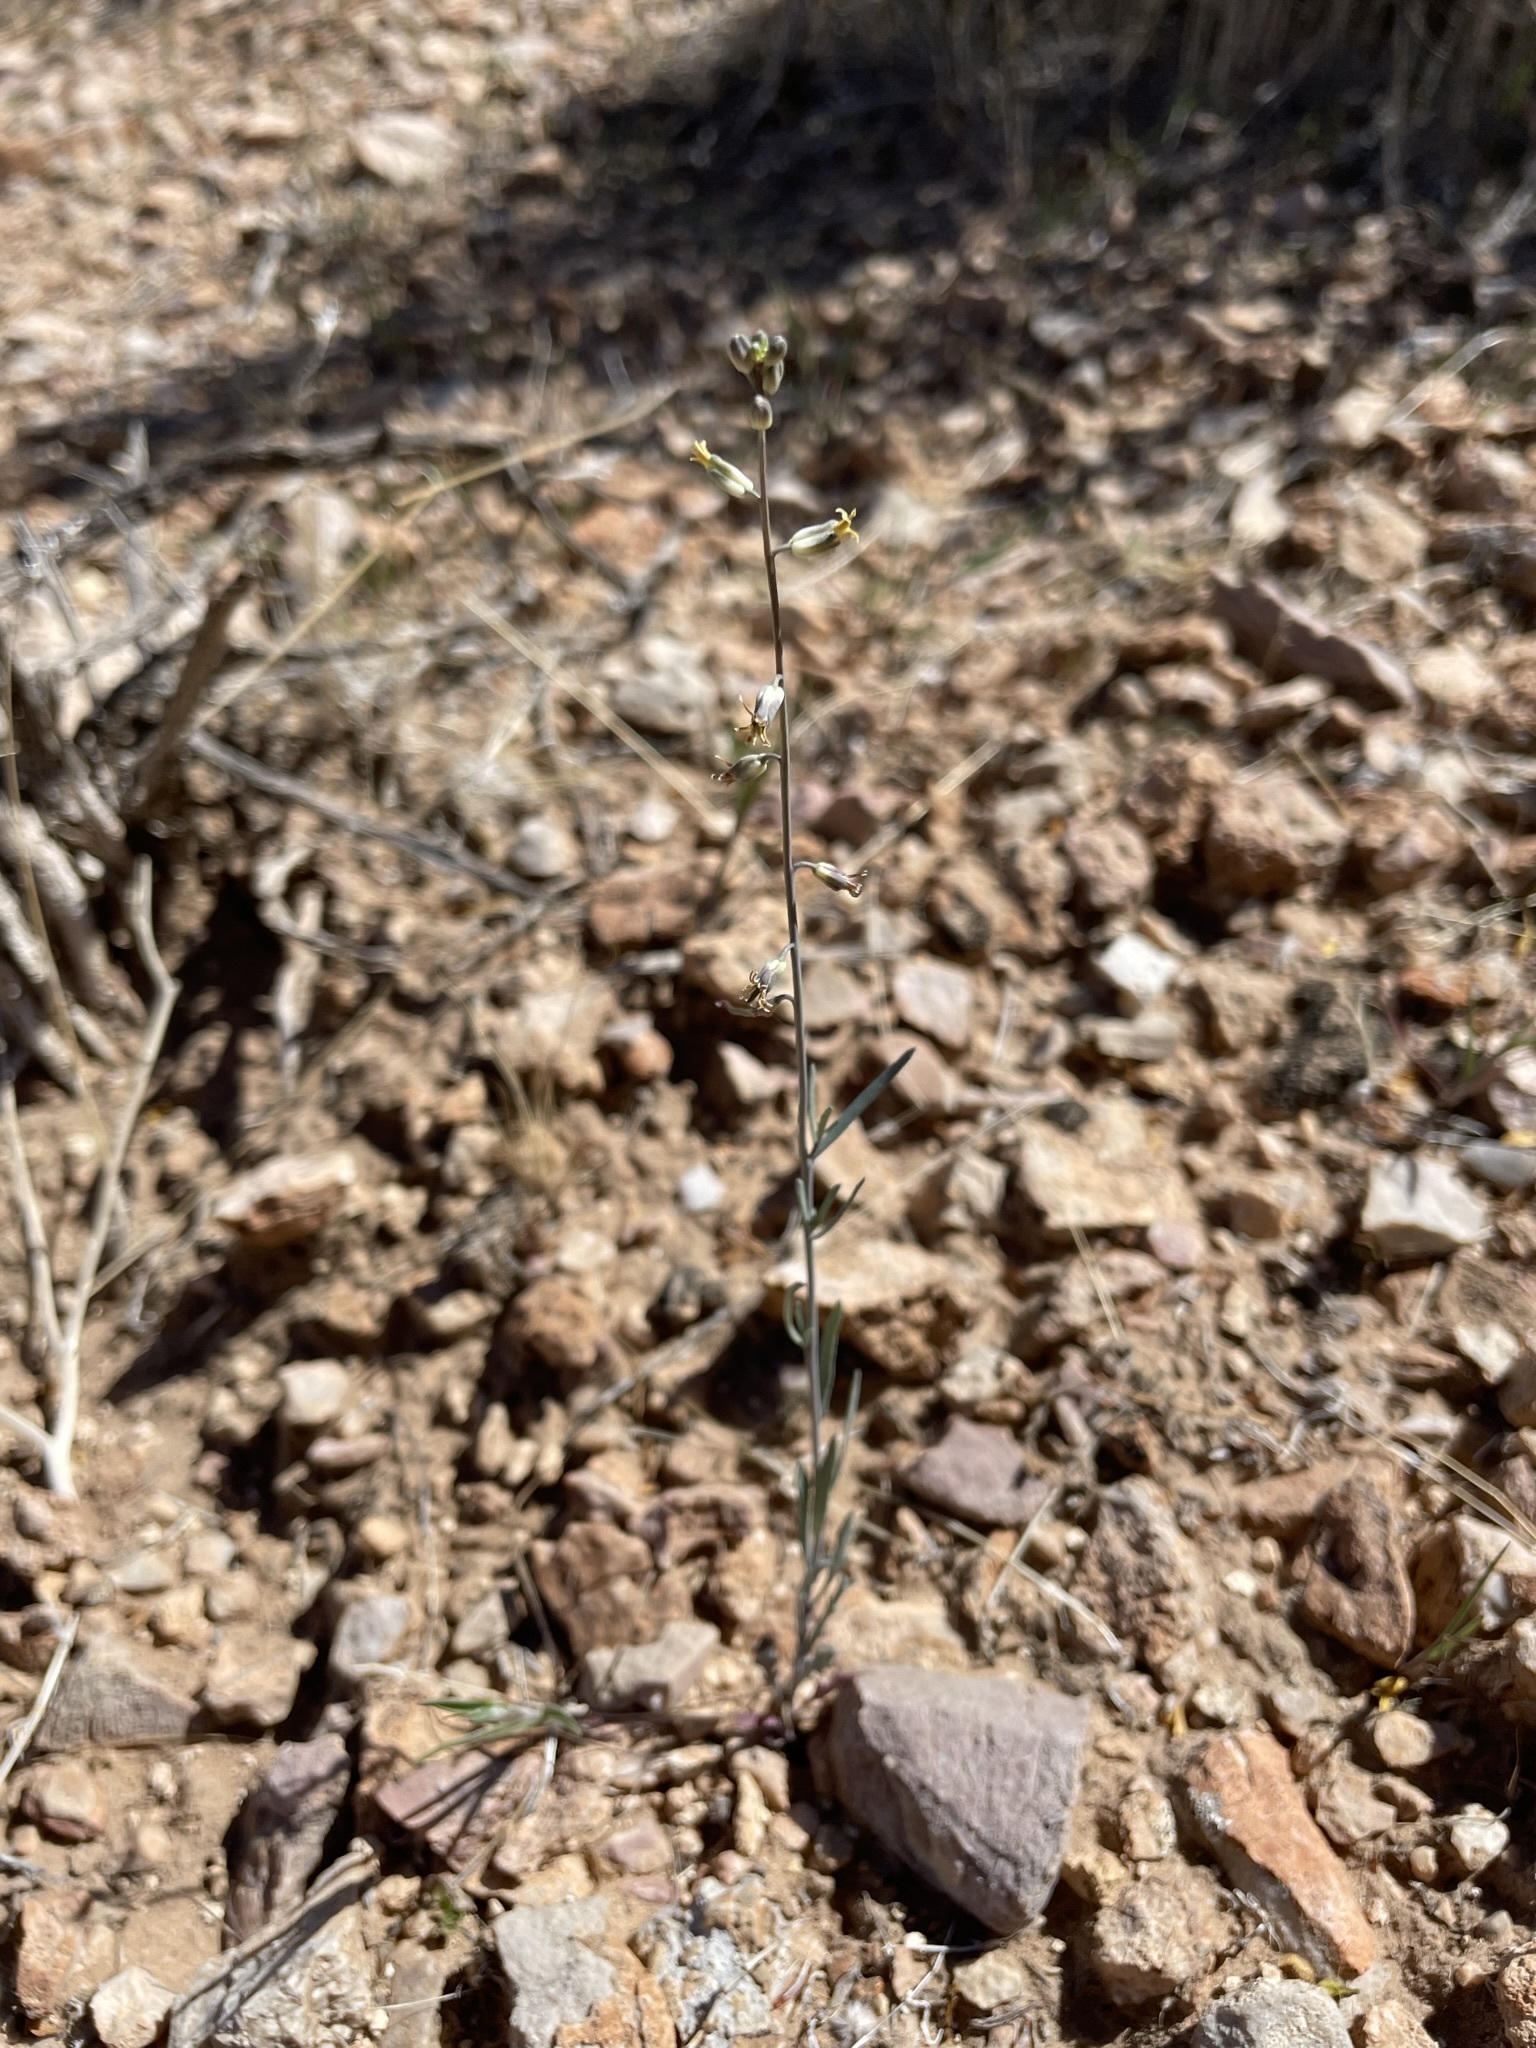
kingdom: Plantae
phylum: Tracheophyta
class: Magnoliopsida
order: Brassicales
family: Brassicaceae
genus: Streptanthus
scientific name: Streptanthus longirostris
